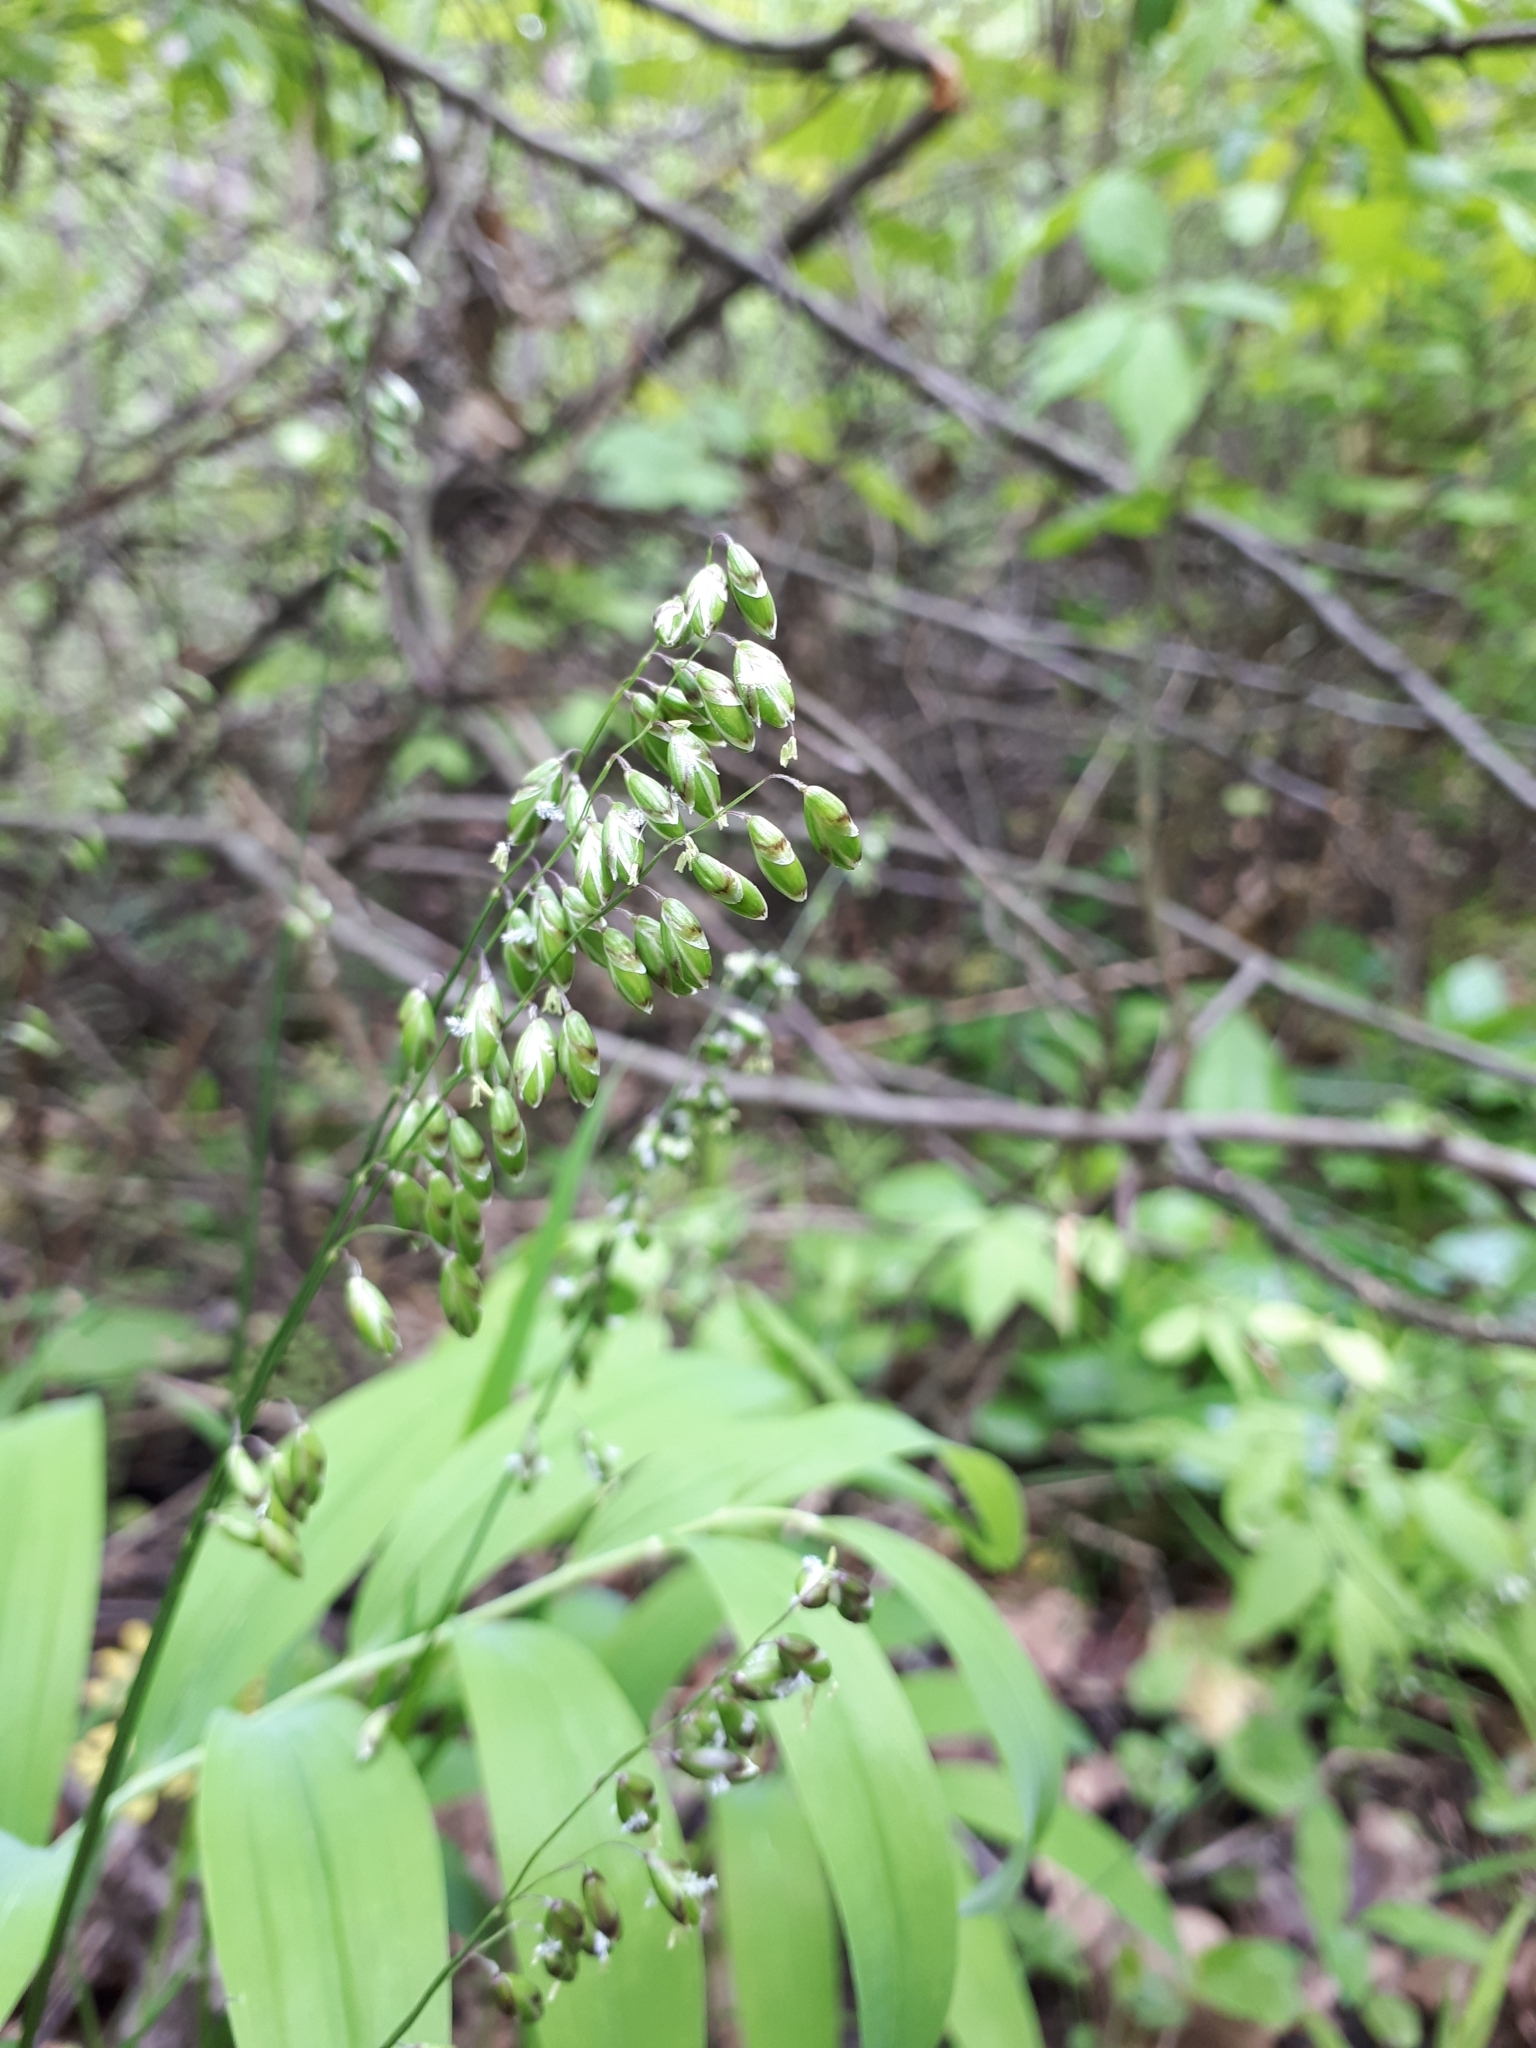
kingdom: Plantae
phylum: Tracheophyta
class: Liliopsida
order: Poales
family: Poaceae
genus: Melica
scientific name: Melica picta
